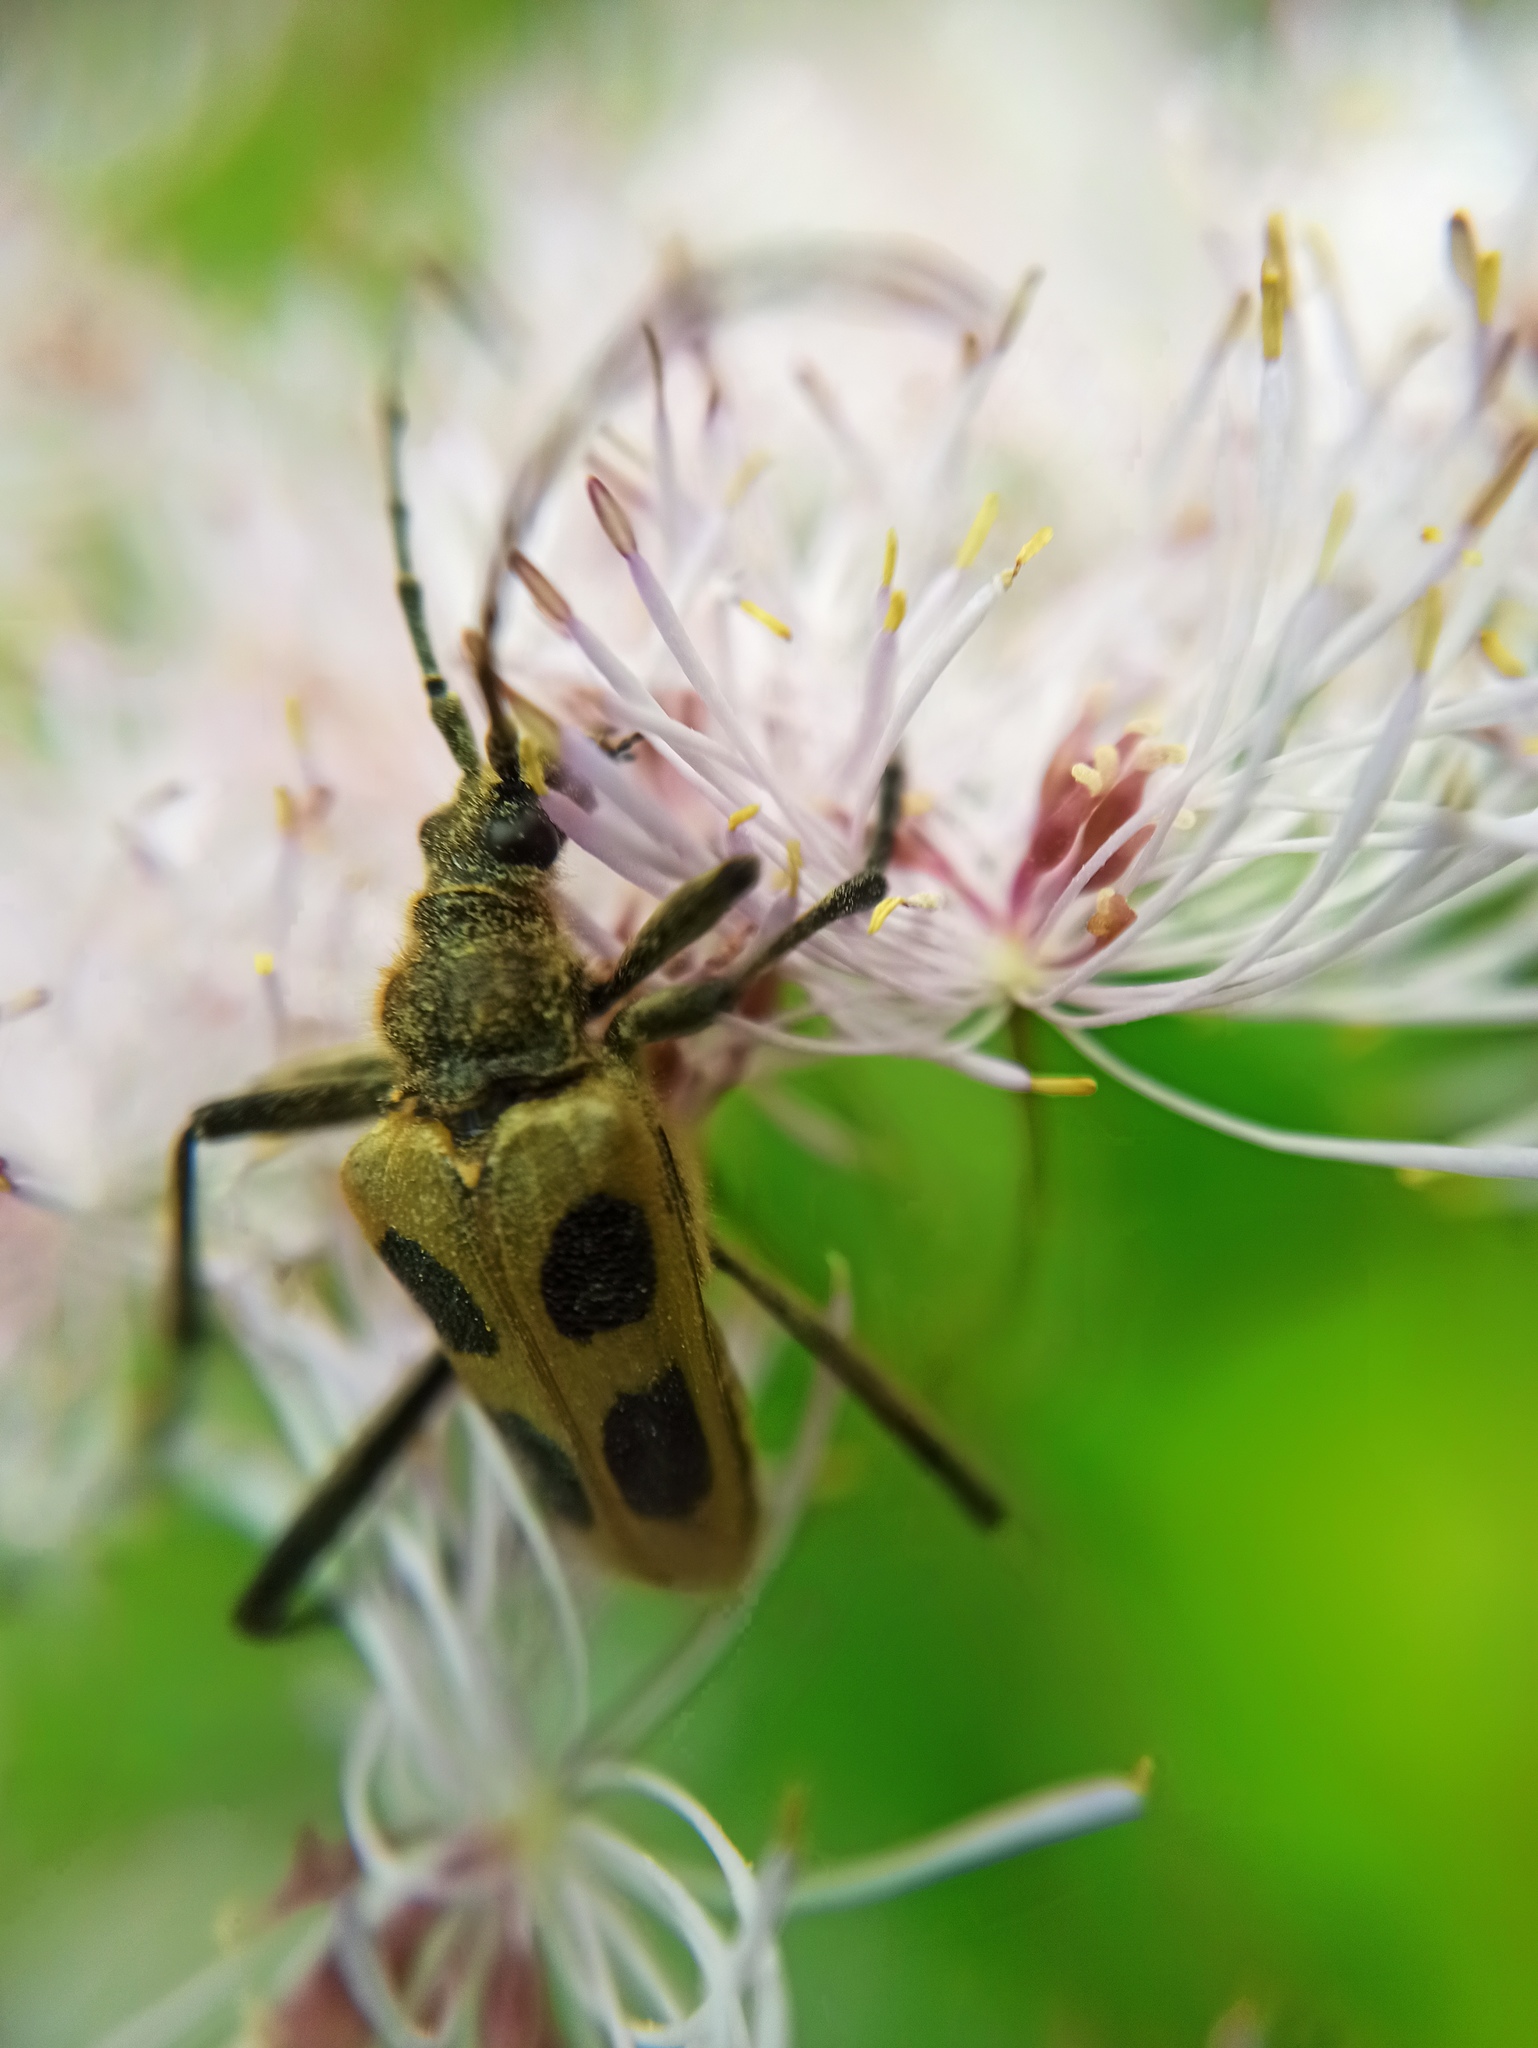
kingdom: Animalia
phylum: Arthropoda
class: Insecta
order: Coleoptera
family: Cerambycidae
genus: Pachyta
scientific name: Pachyta quadrimaculata
